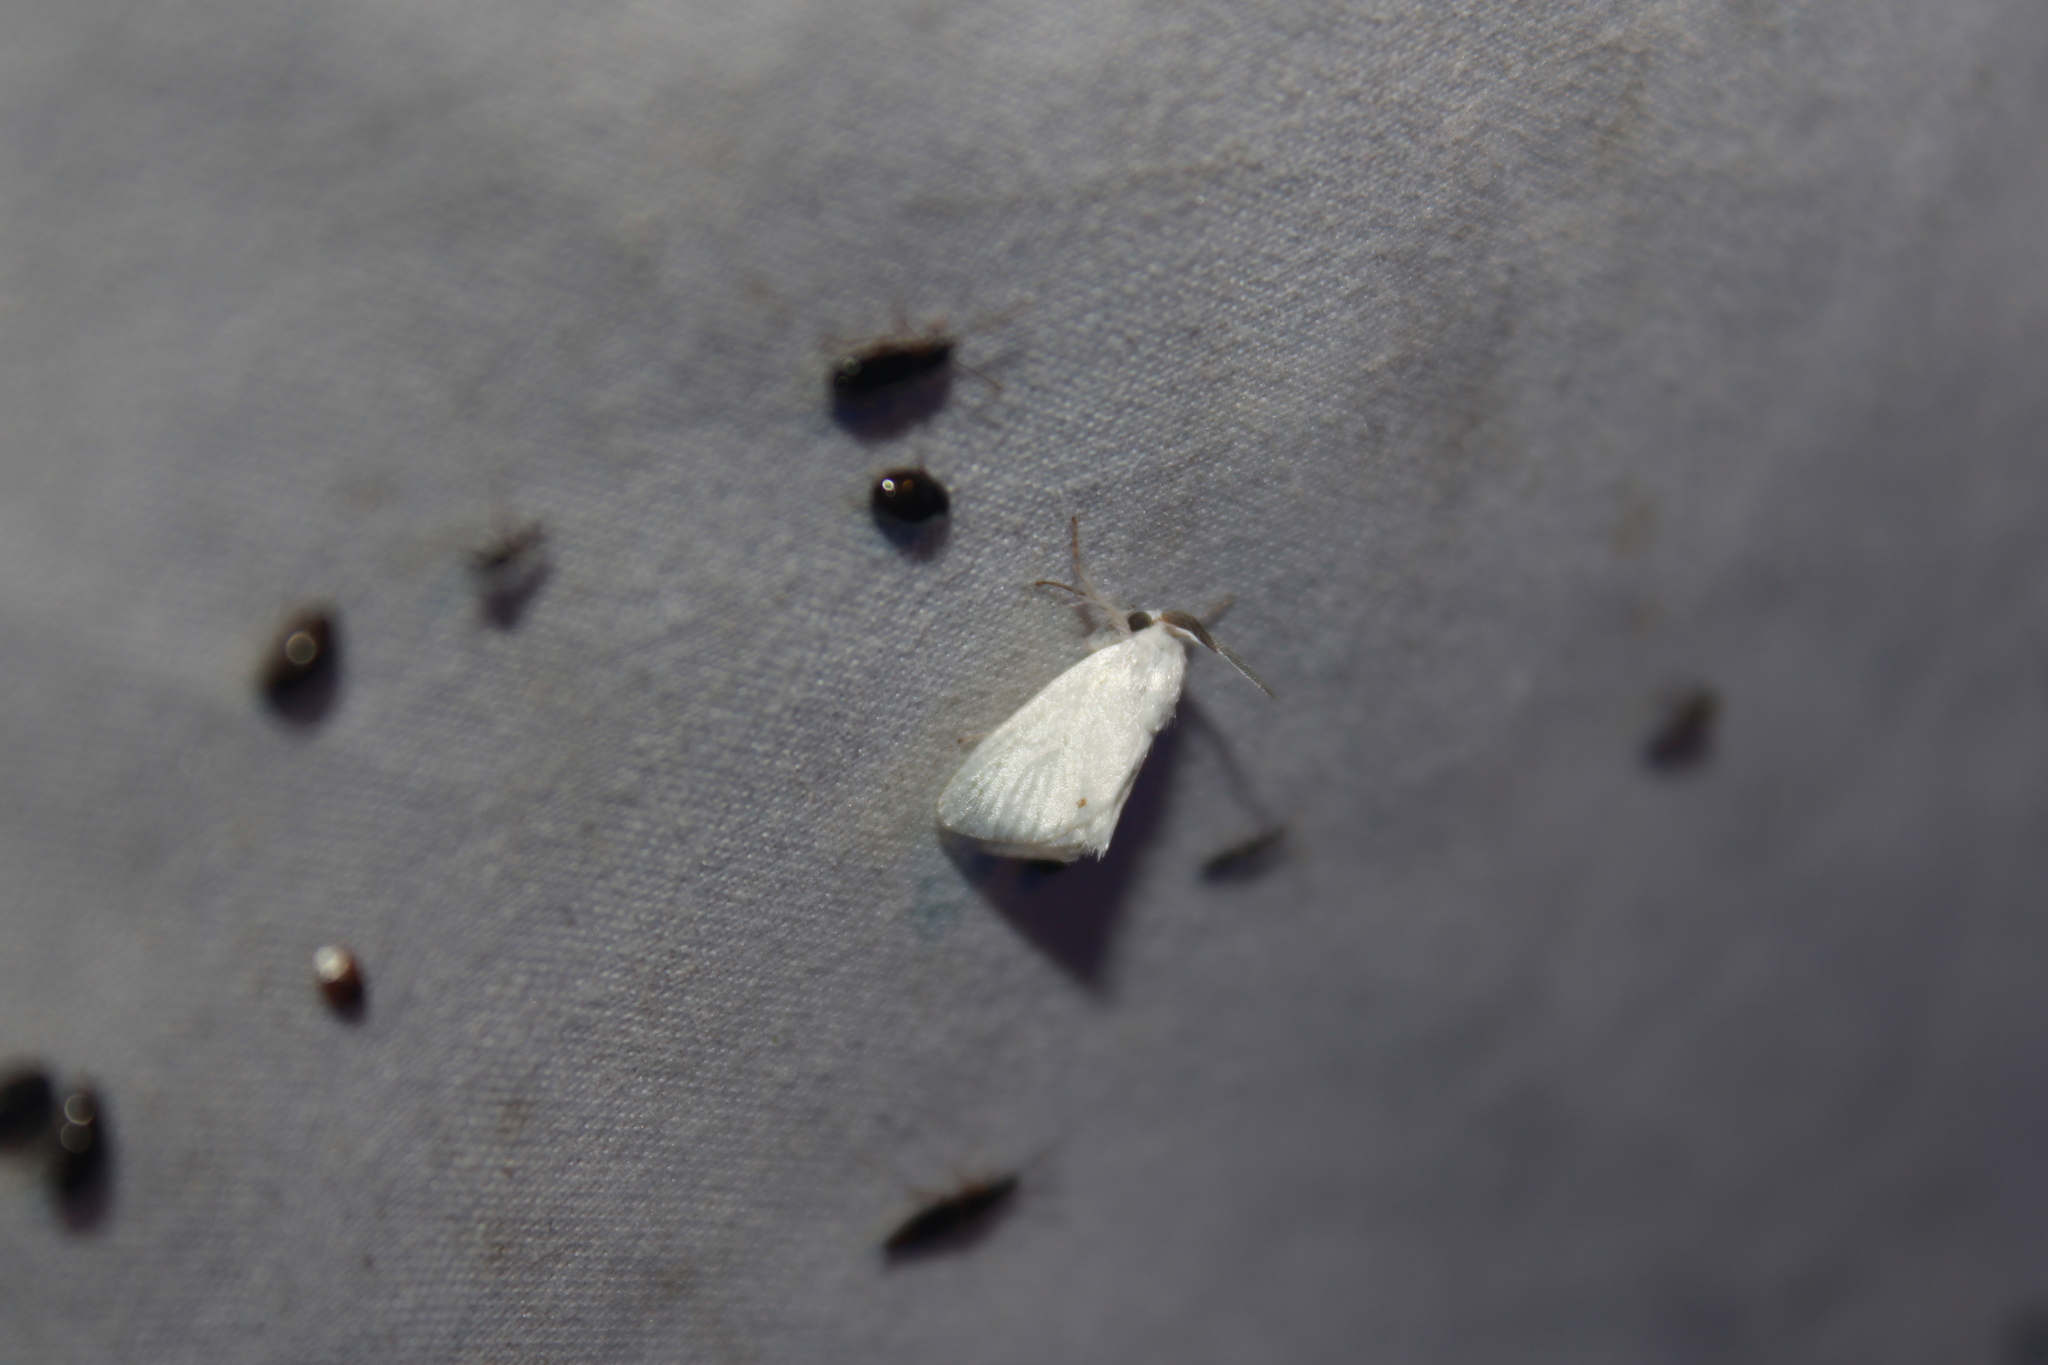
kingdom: Animalia
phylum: Arthropoda
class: Insecta
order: Lepidoptera
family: Limacodidae
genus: Alarodia
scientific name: Alarodia slossoniae
